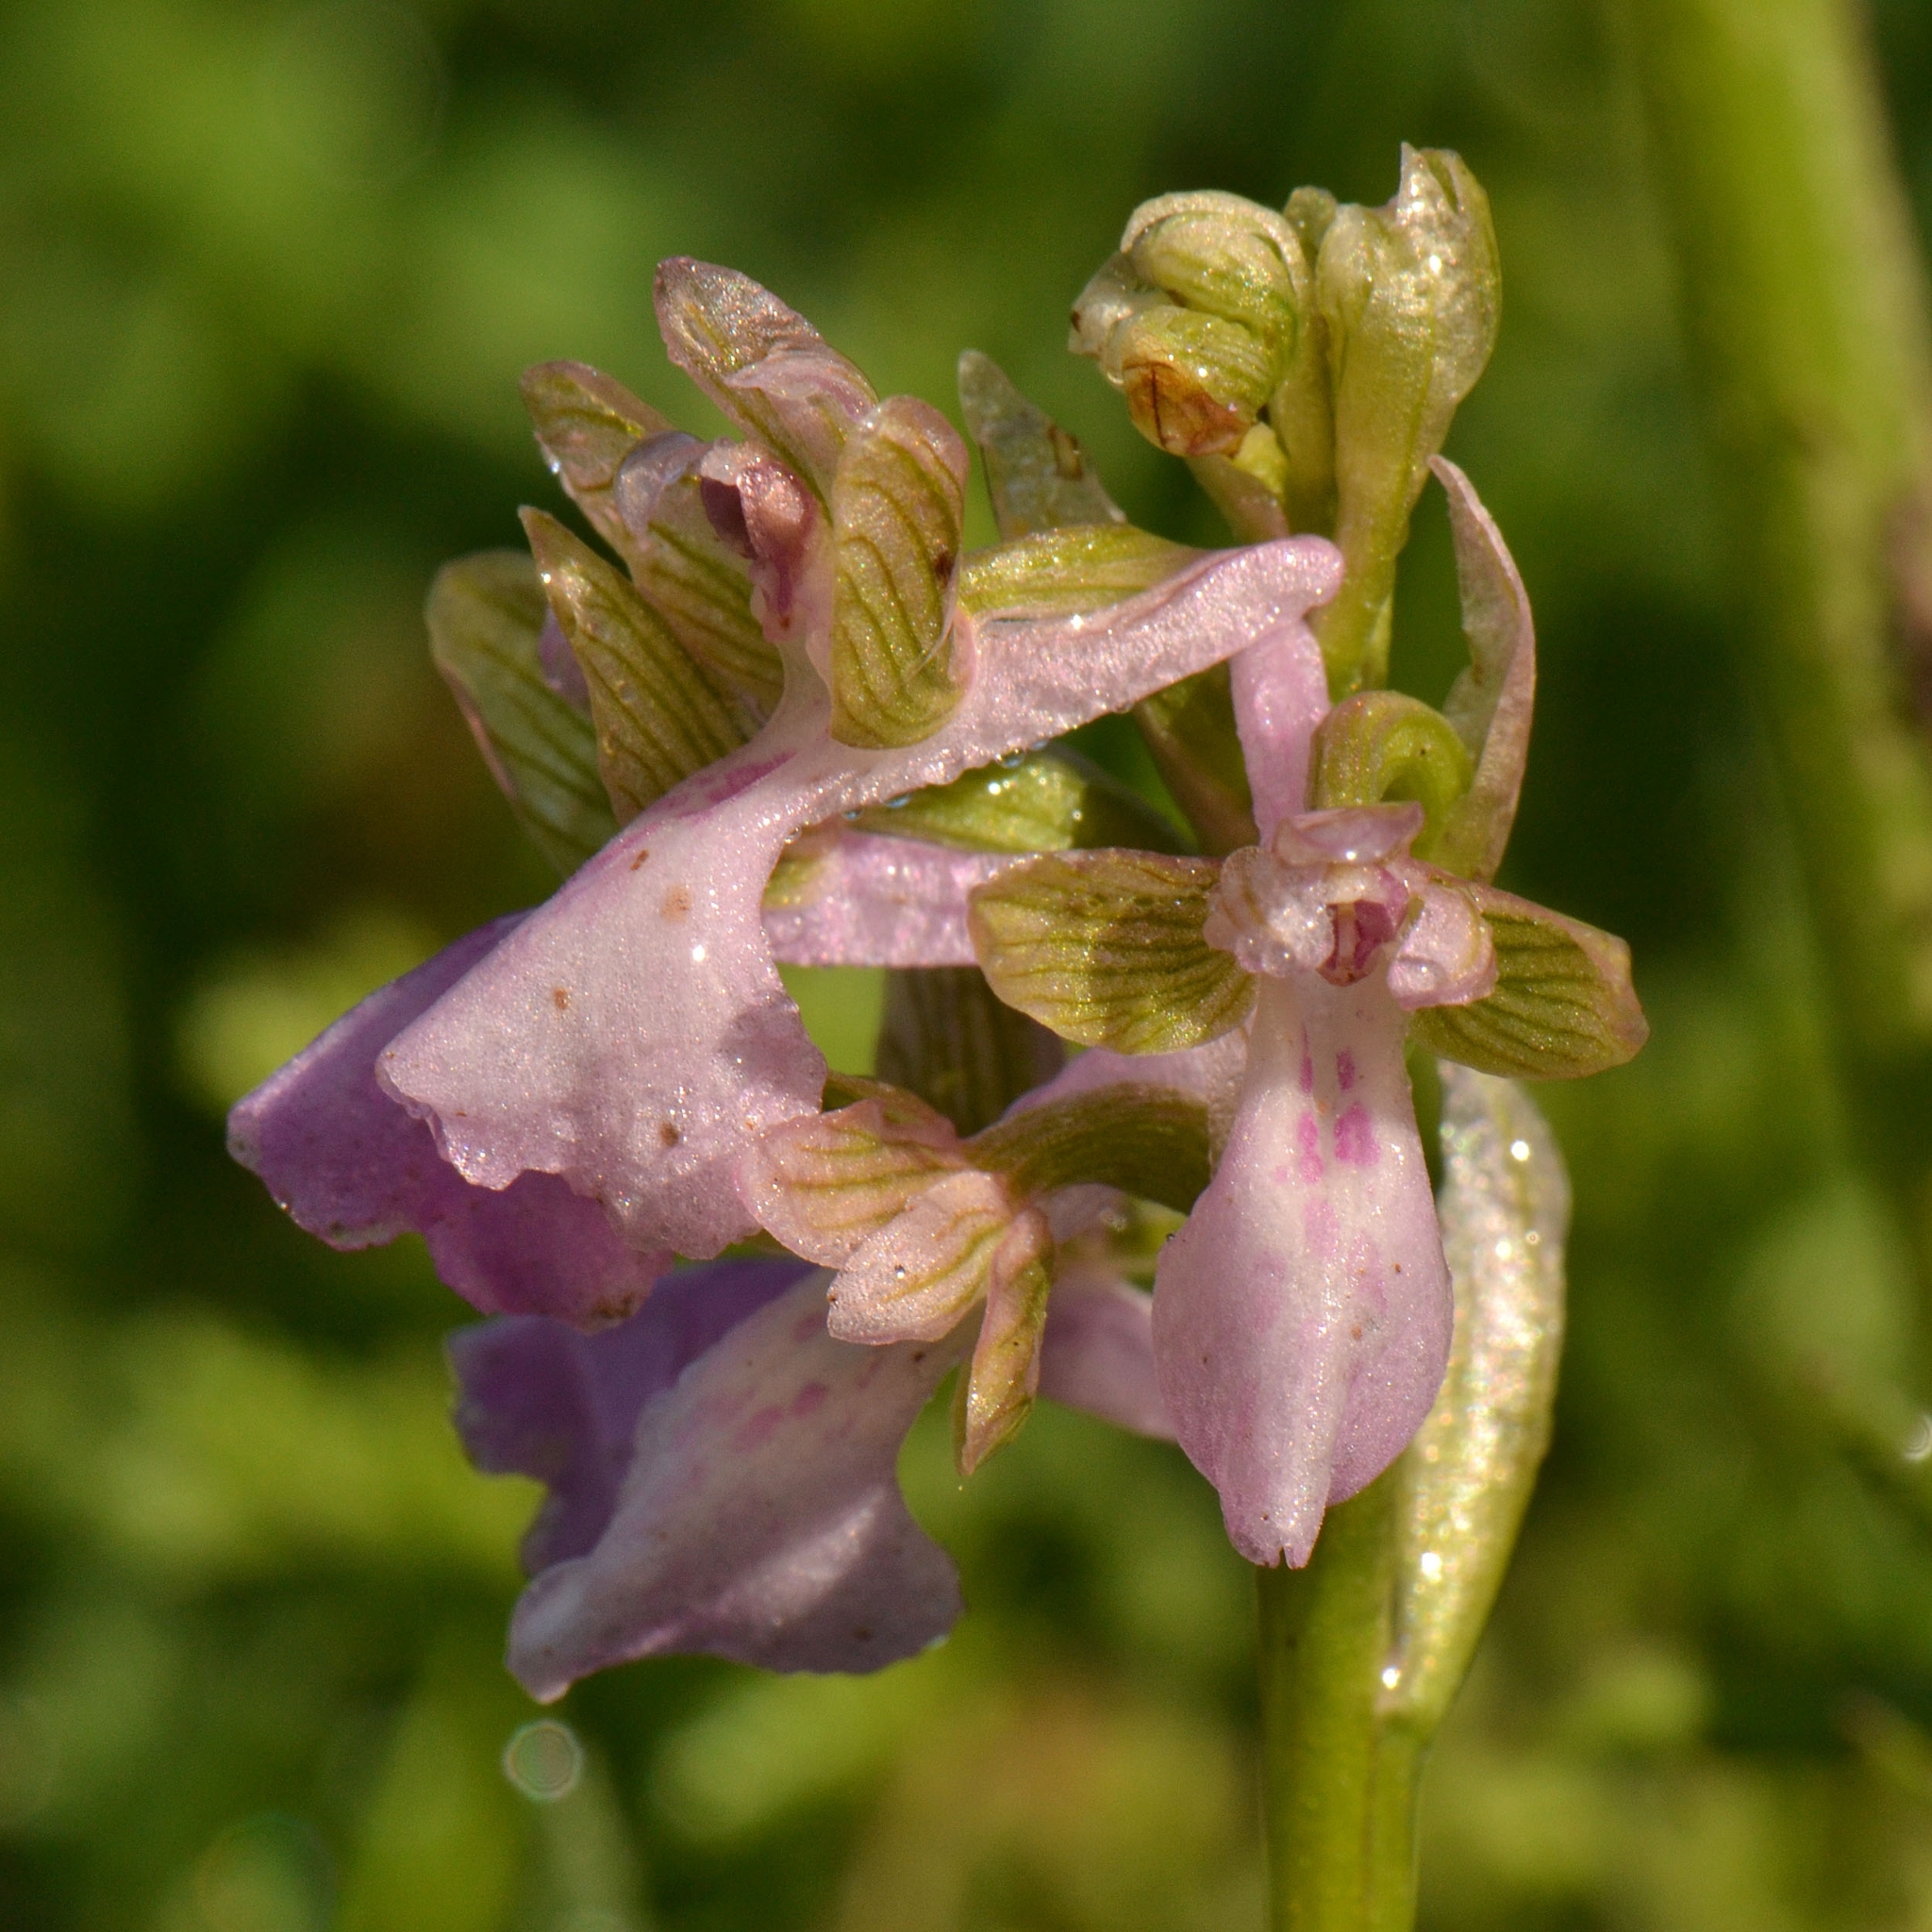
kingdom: Plantae
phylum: Tracheophyta
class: Liliopsida
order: Asparagales
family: Orchidaceae
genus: Anacamptis
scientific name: Anacamptis morio
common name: Green-winged orchid
